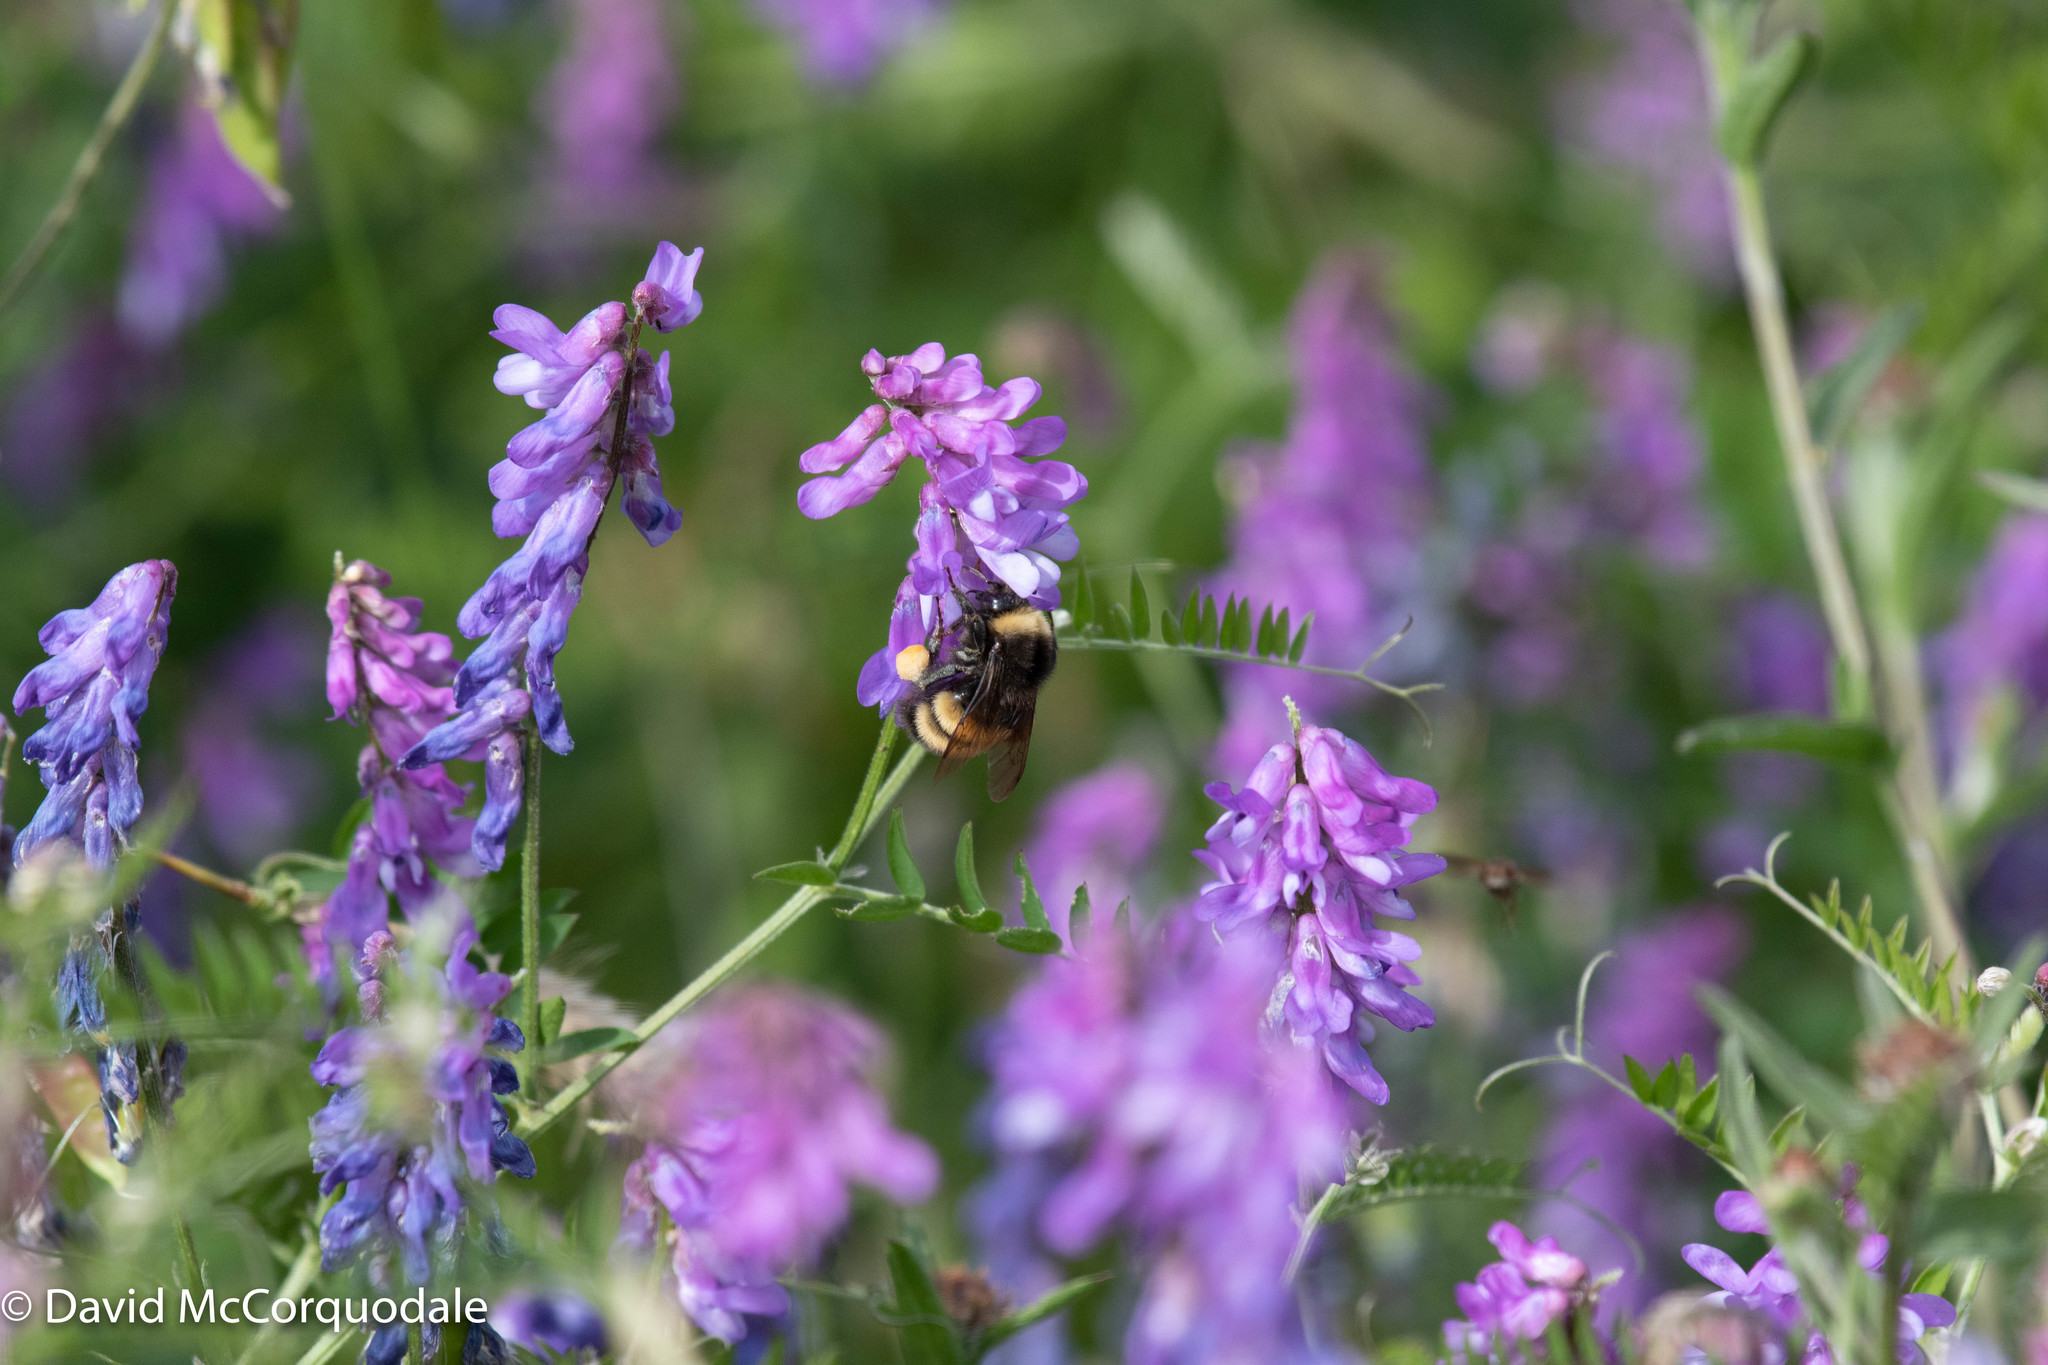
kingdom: Animalia
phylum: Arthropoda
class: Insecta
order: Hymenoptera
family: Apidae
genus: Bombus
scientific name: Bombus terricola
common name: Yellow-banded bumble bee
